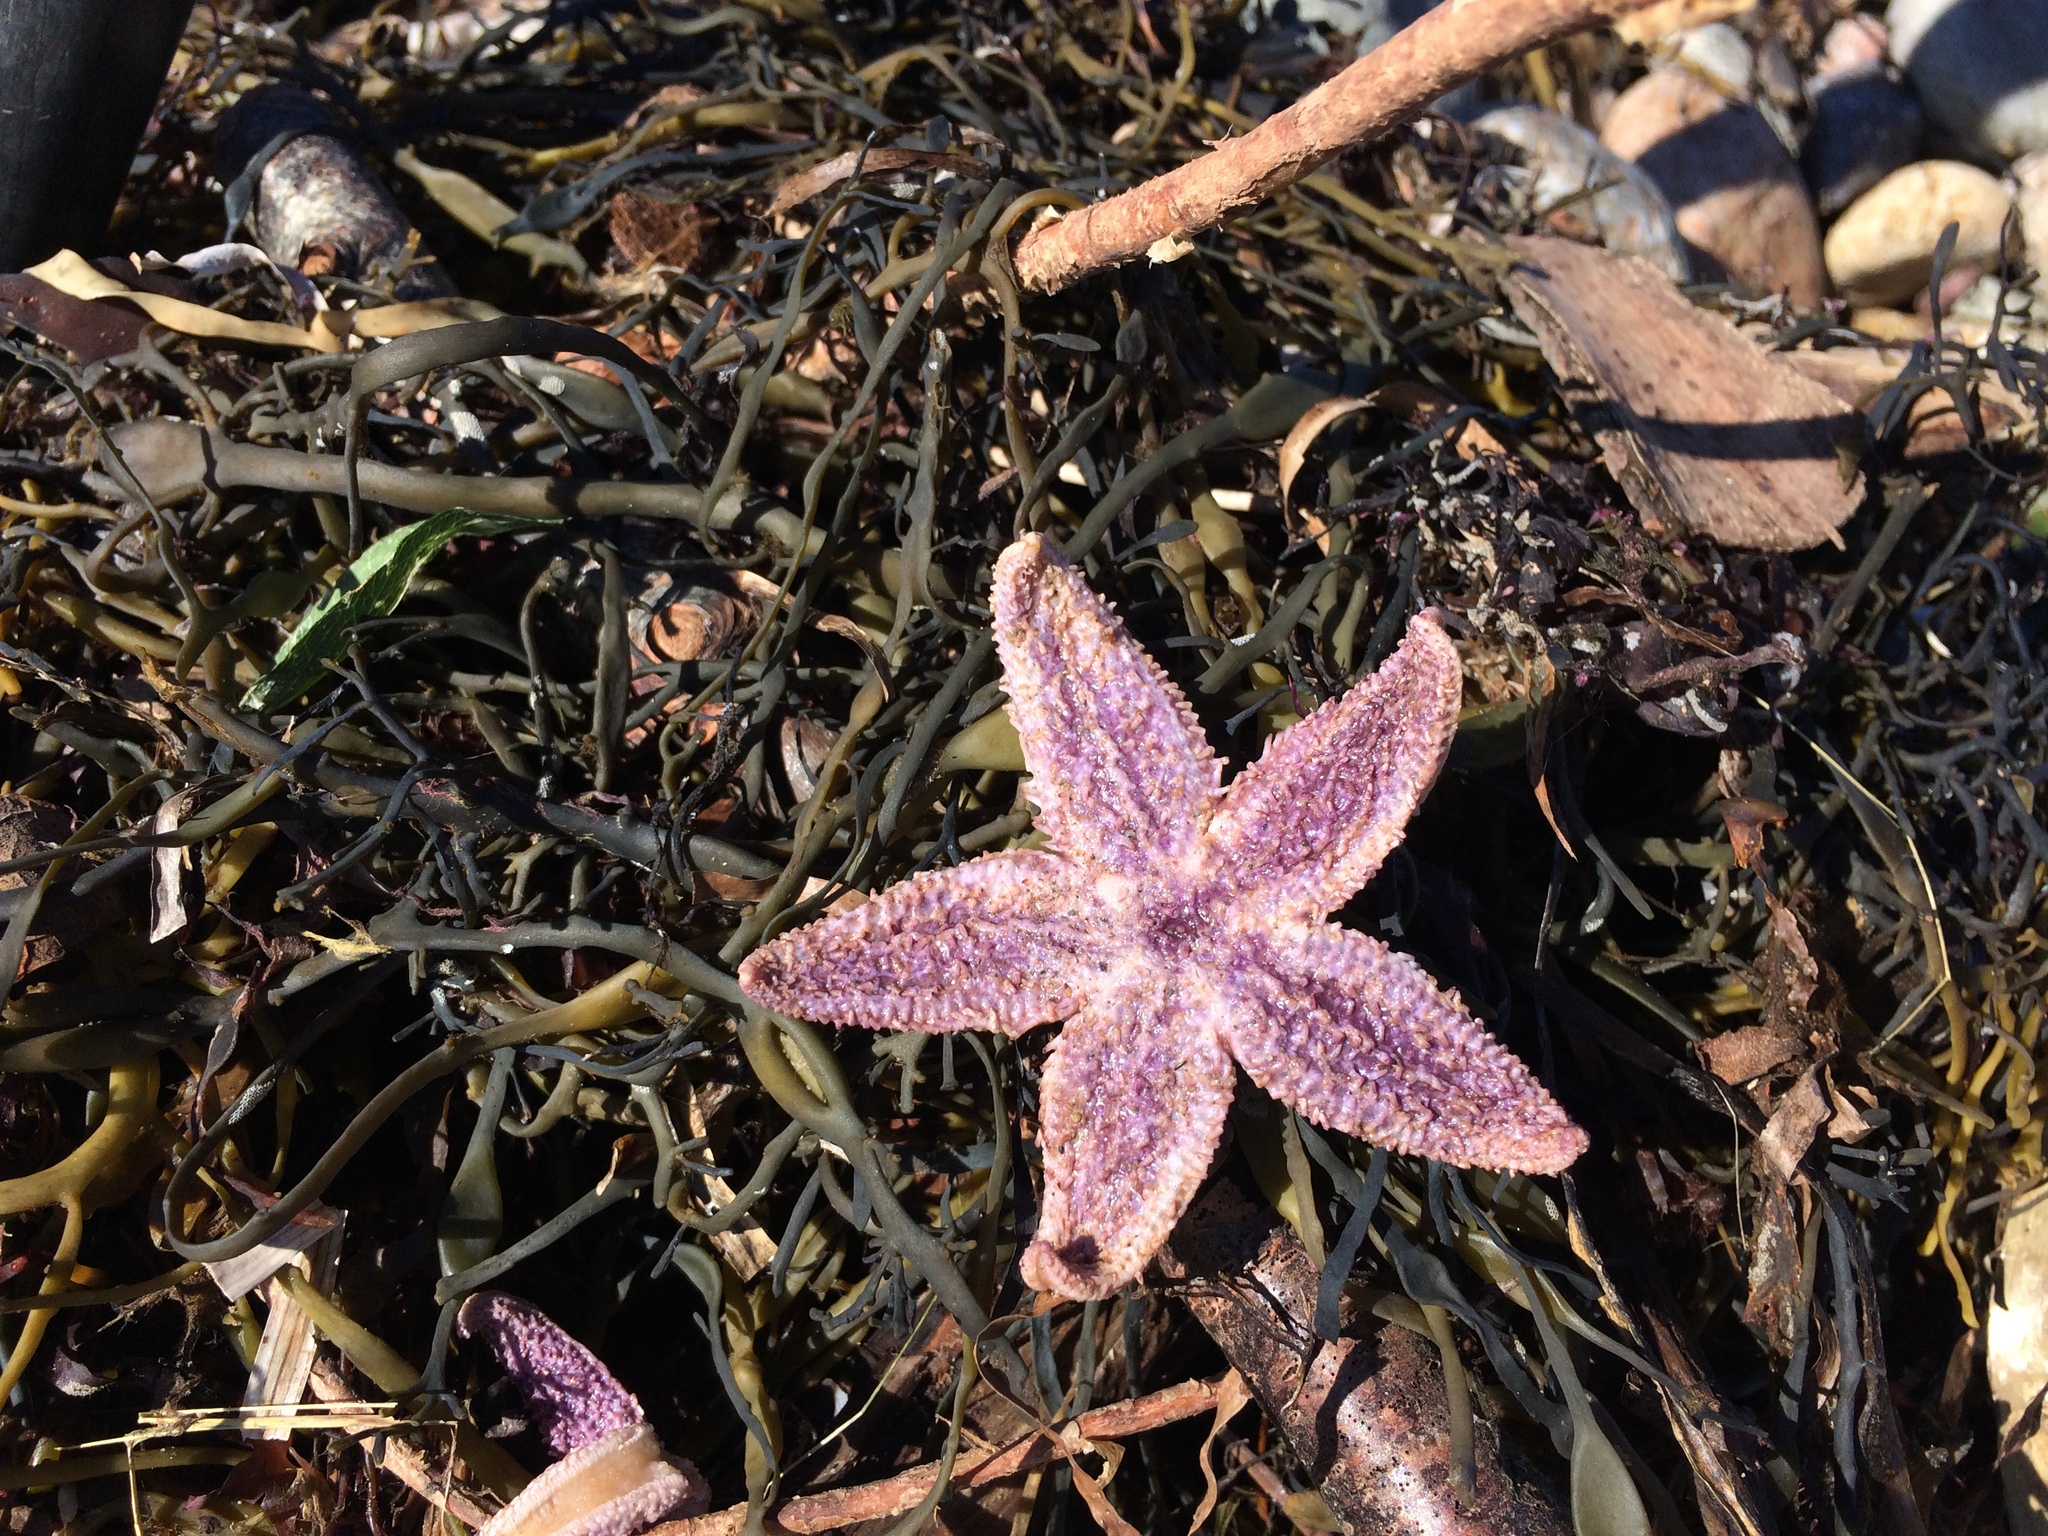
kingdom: Animalia
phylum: Echinodermata
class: Asteroidea
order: Forcipulatida
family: Asteriidae
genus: Asterias
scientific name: Asterias rubens
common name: Common starfish
